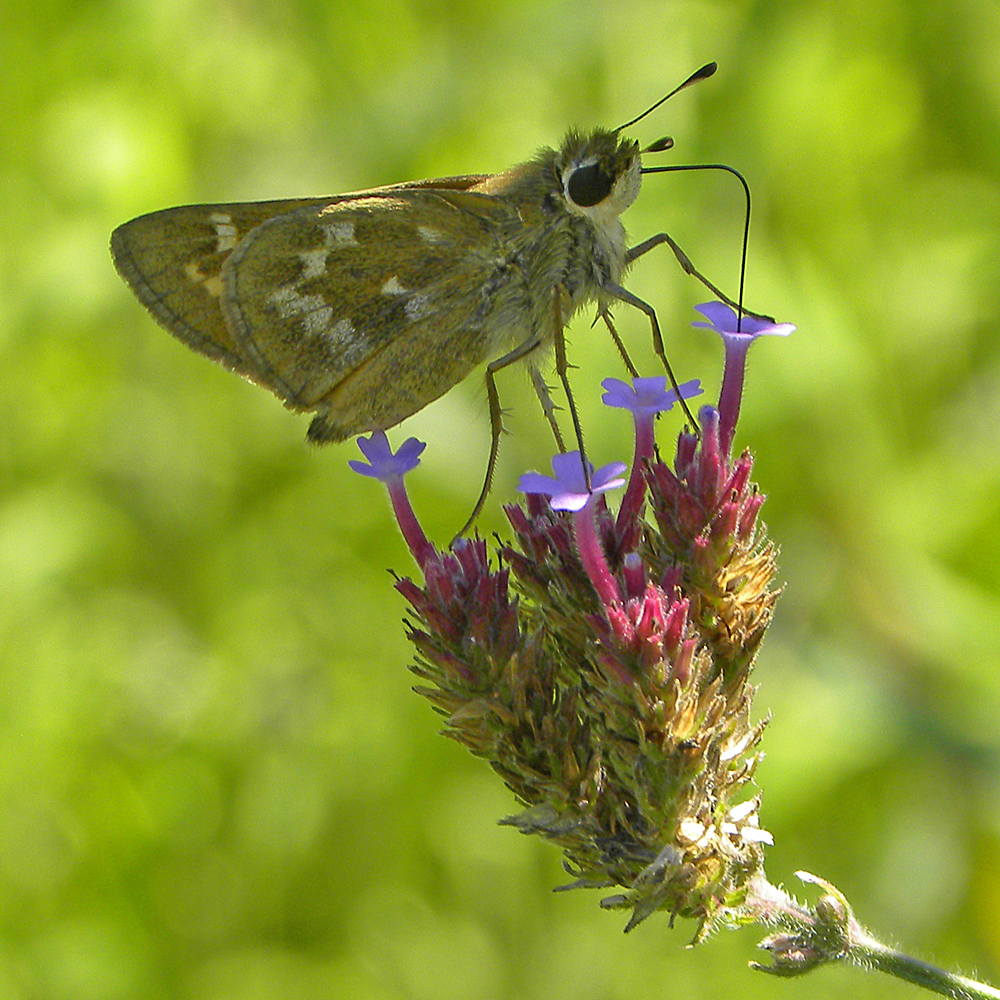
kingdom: Animalia
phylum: Arthropoda
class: Insecta
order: Lepidoptera
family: Hesperiidae
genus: Atalopedes
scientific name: Atalopedes
